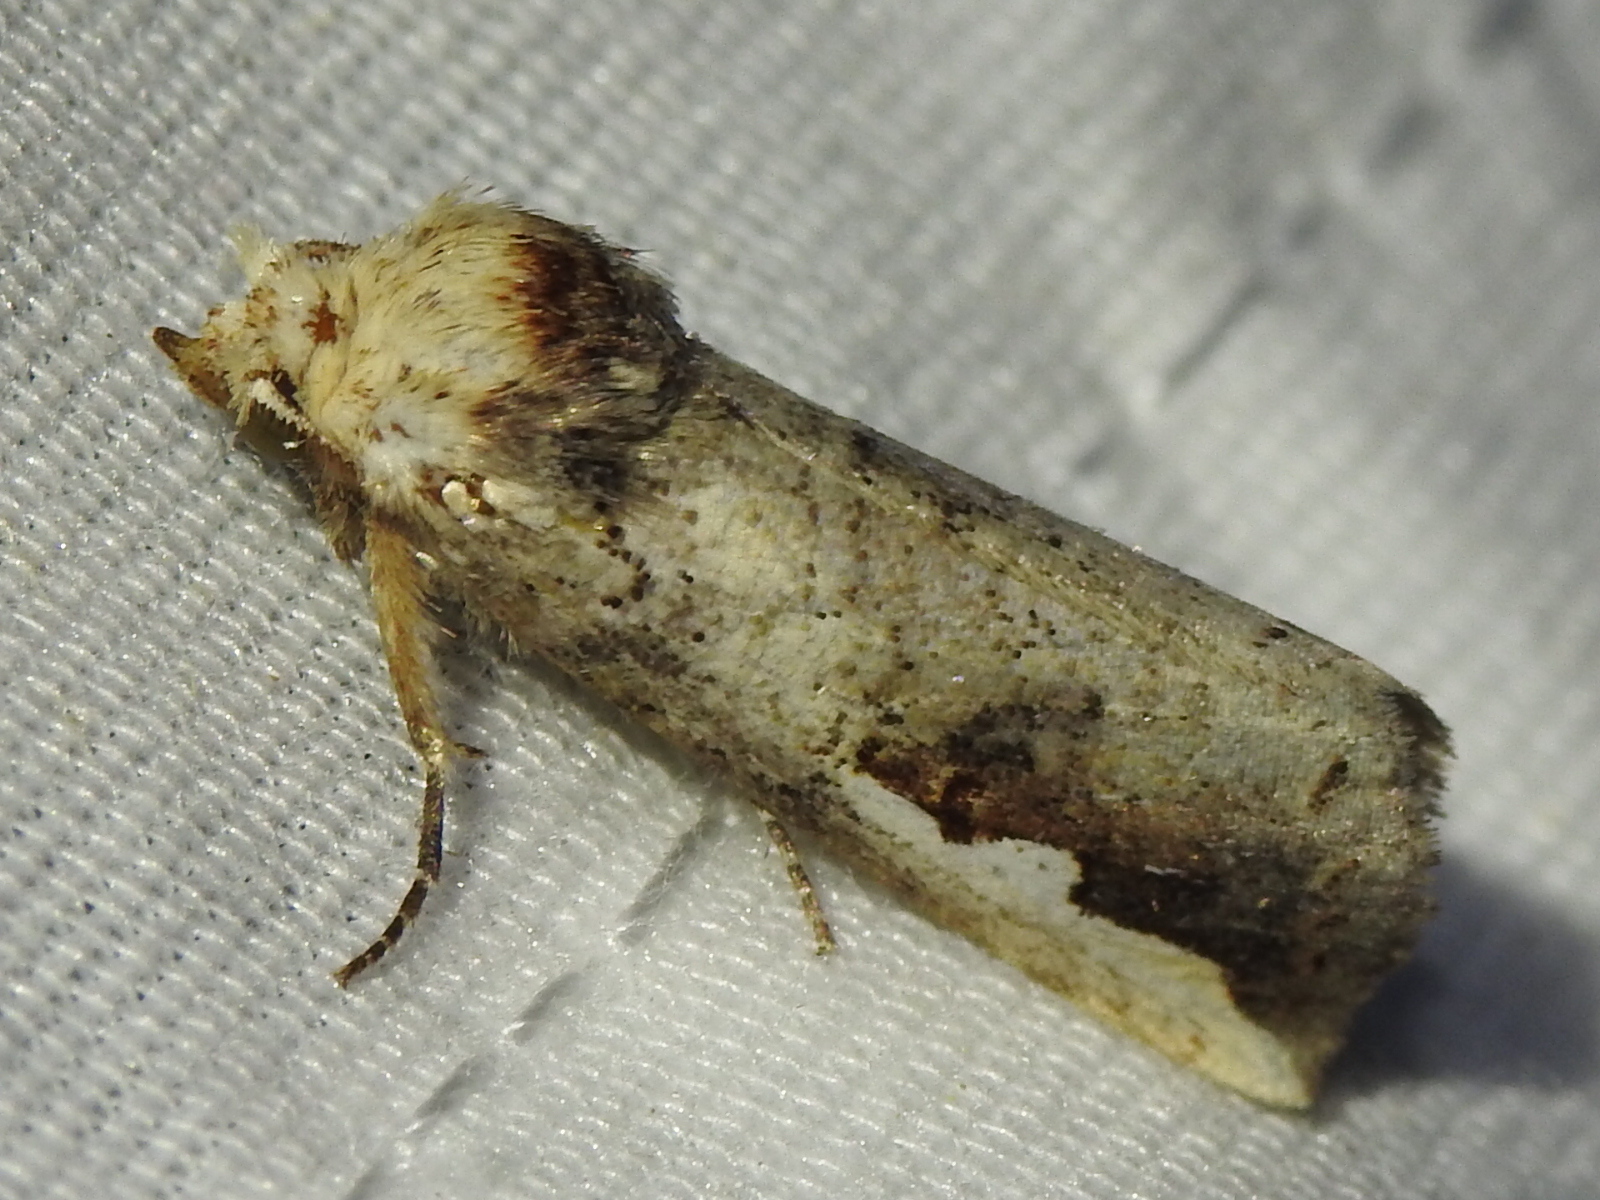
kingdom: Animalia
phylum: Arthropoda
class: Insecta
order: Lepidoptera
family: Notodontidae
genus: Symmerista
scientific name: Symmerista albifrons
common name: White-headed prominent
